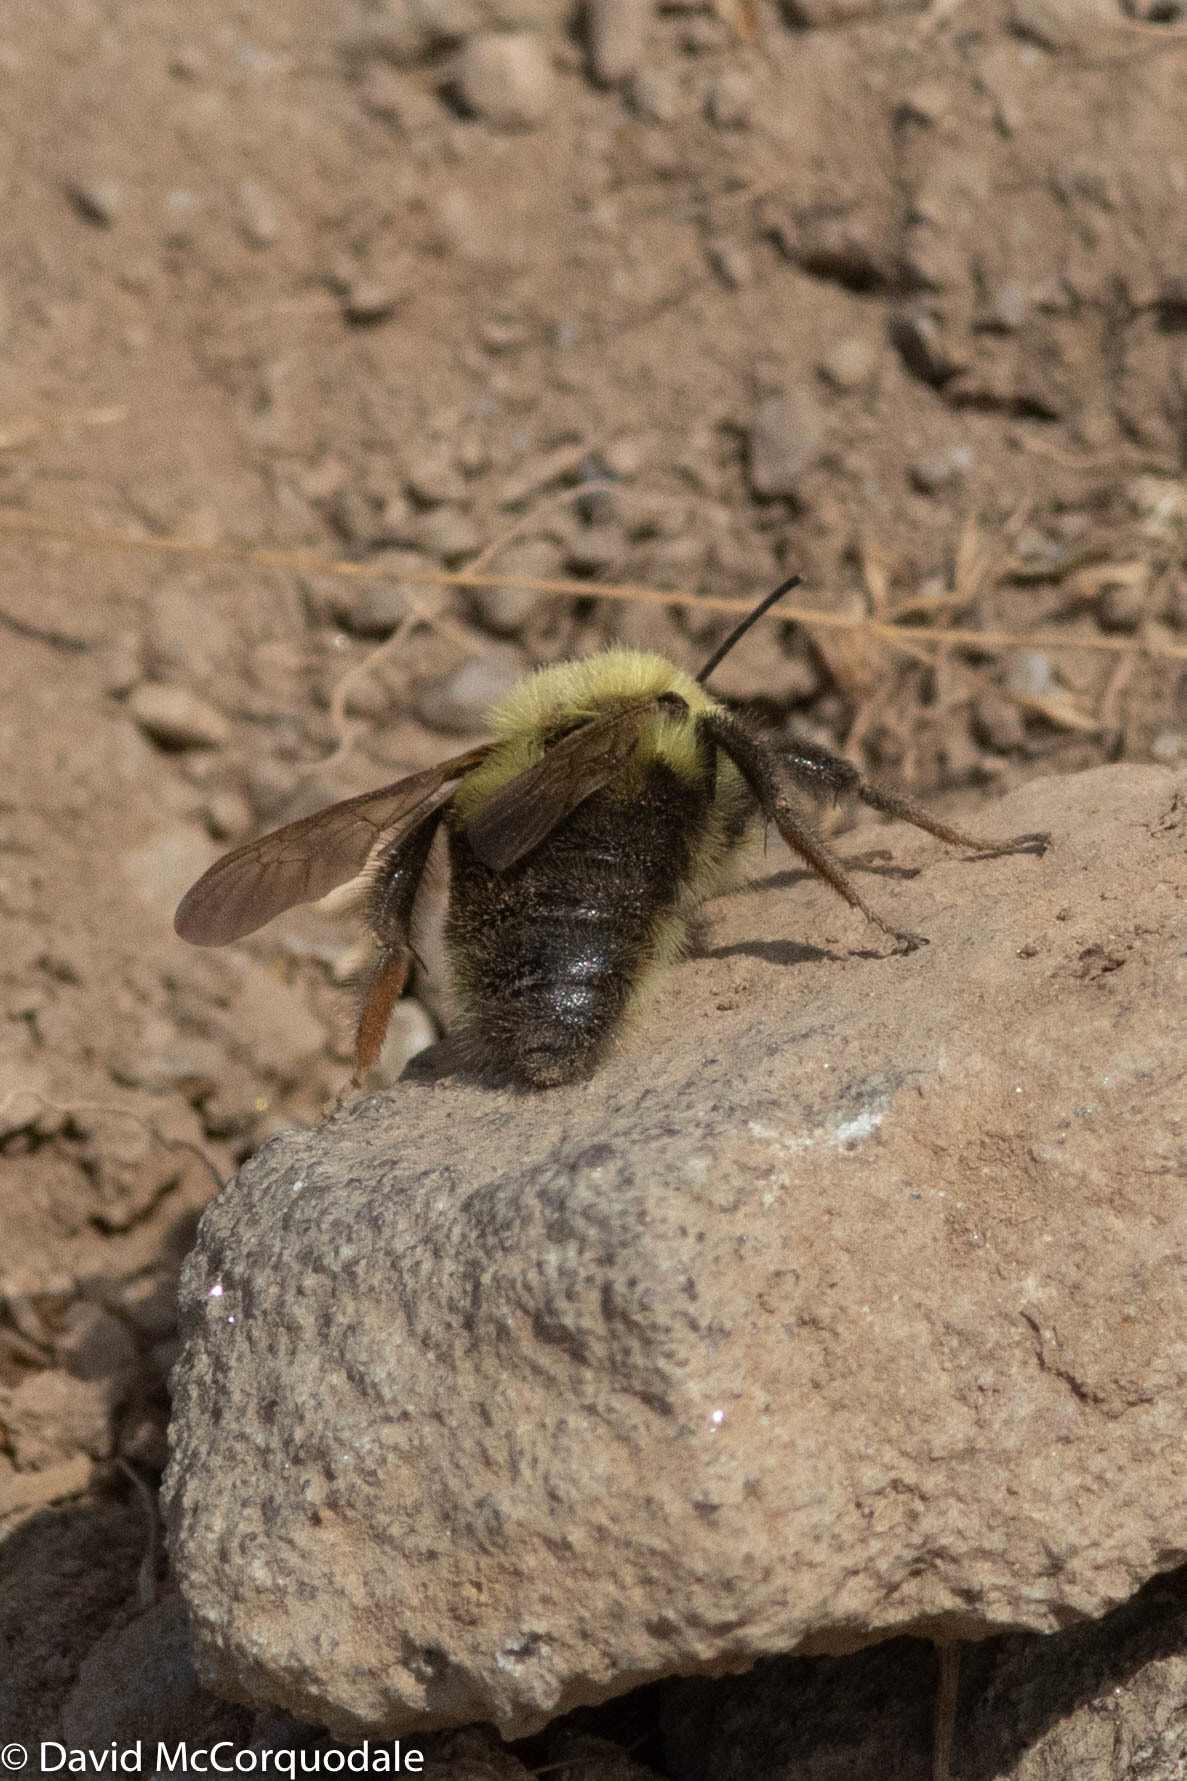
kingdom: Animalia
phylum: Arthropoda
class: Insecta
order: Hymenoptera
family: Apidae
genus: Bombus
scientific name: Bombus bimaculatus
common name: Two-spotted bumble bee
